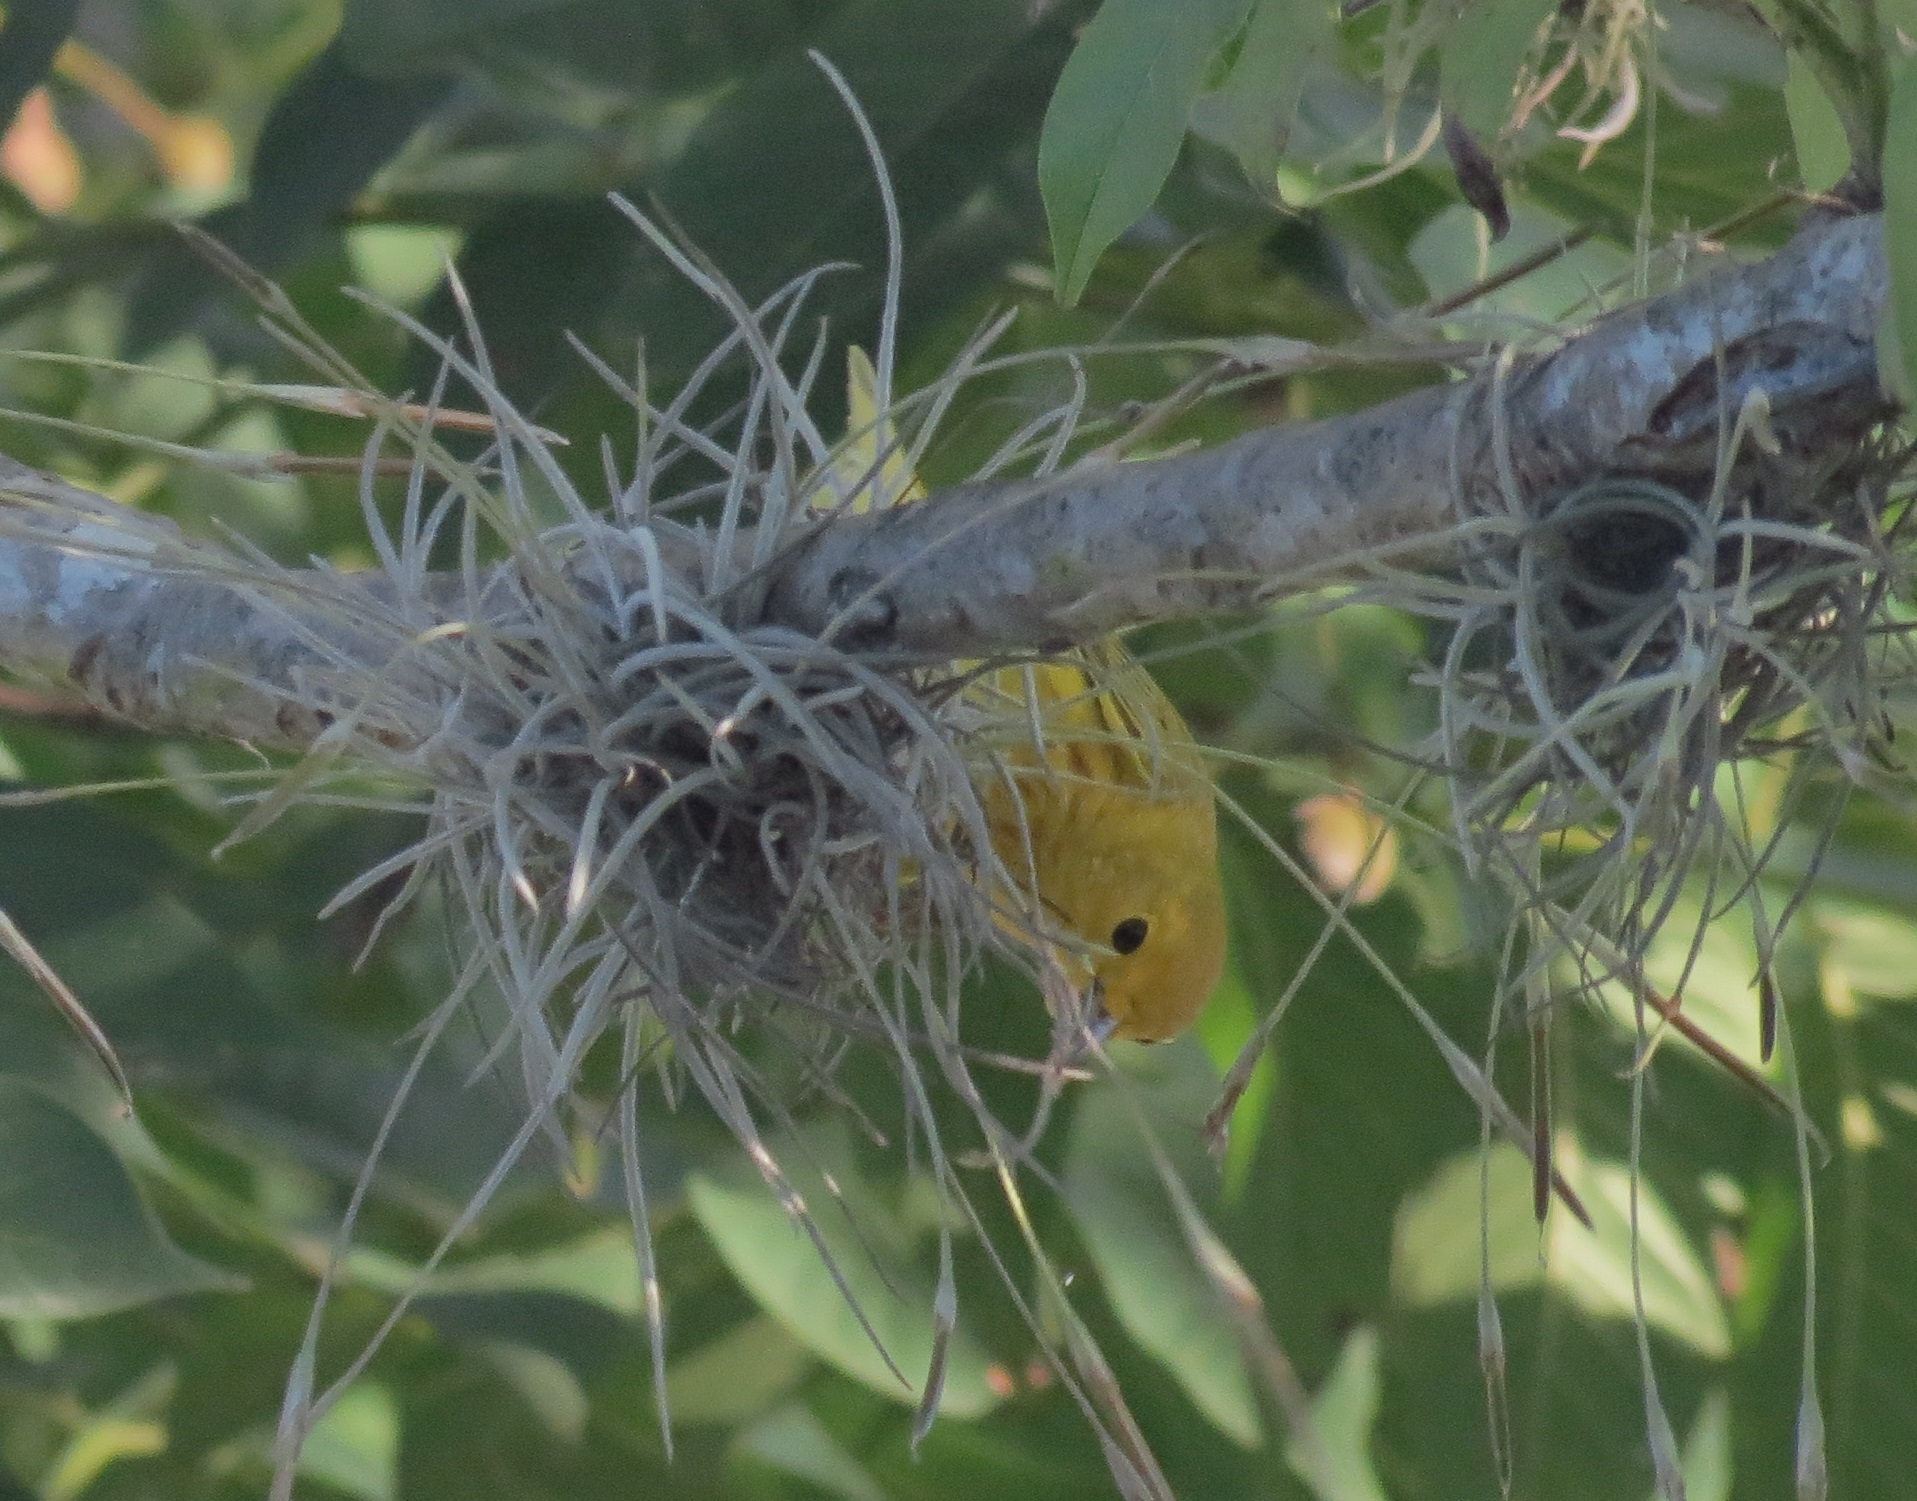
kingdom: Animalia
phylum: Chordata
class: Aves
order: Passeriformes
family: Parulidae
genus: Setophaga
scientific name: Setophaga petechia
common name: Yellow warbler
